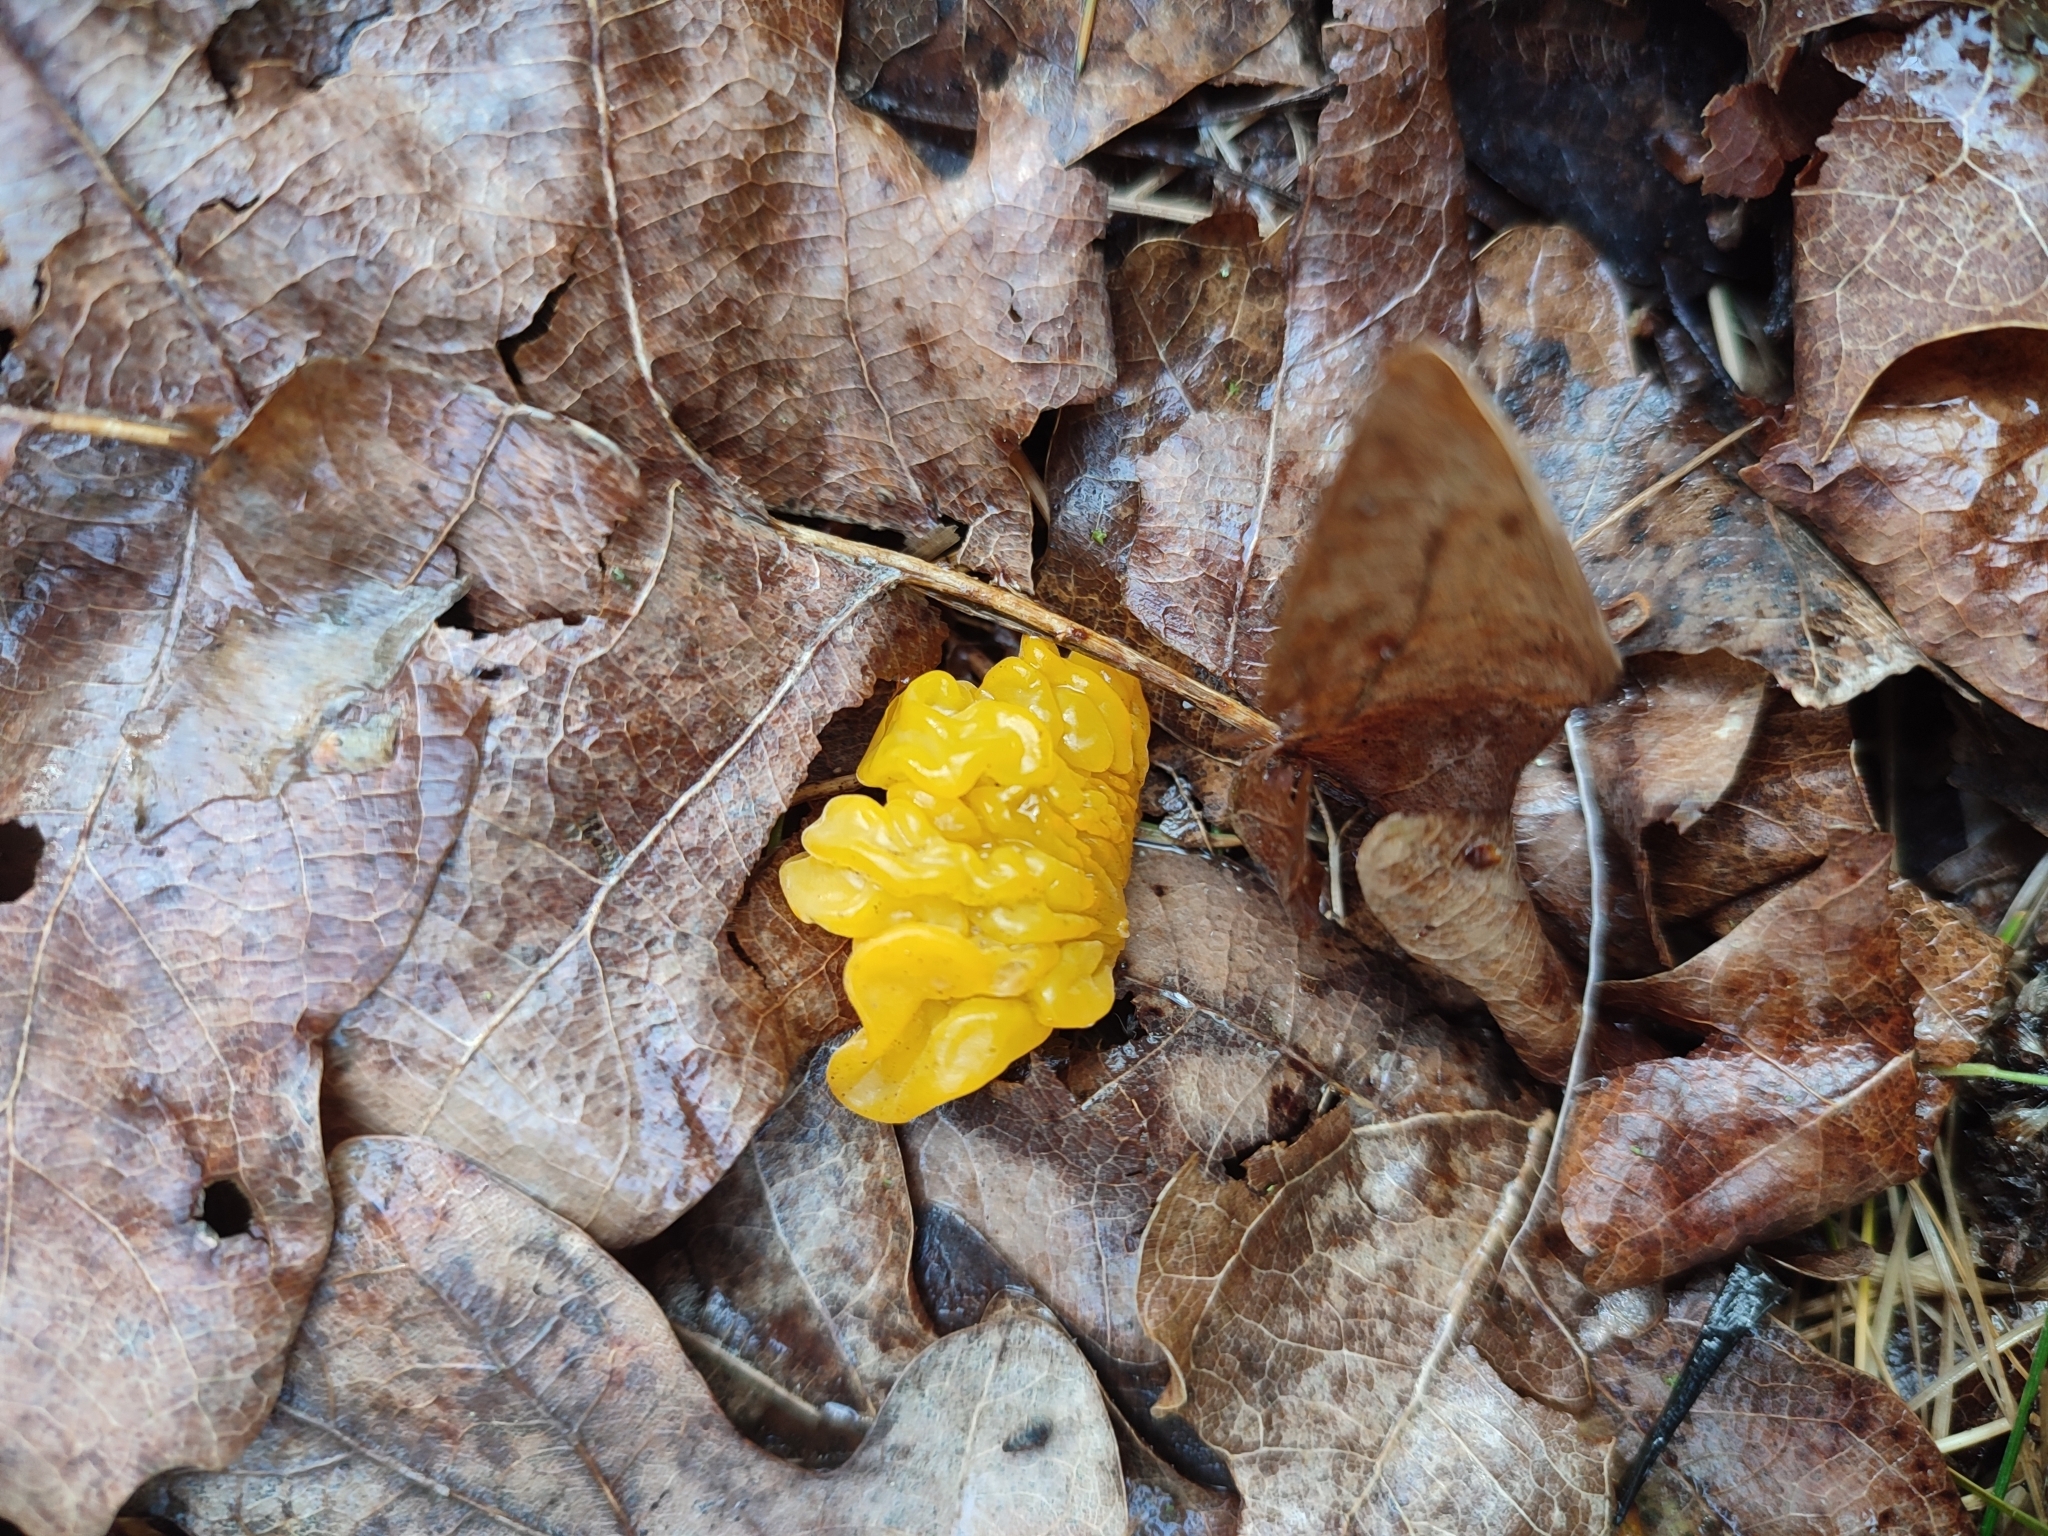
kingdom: Fungi
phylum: Basidiomycota
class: Tremellomycetes
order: Tremellales
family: Tremellaceae
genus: Tremella
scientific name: Tremella mesenterica
